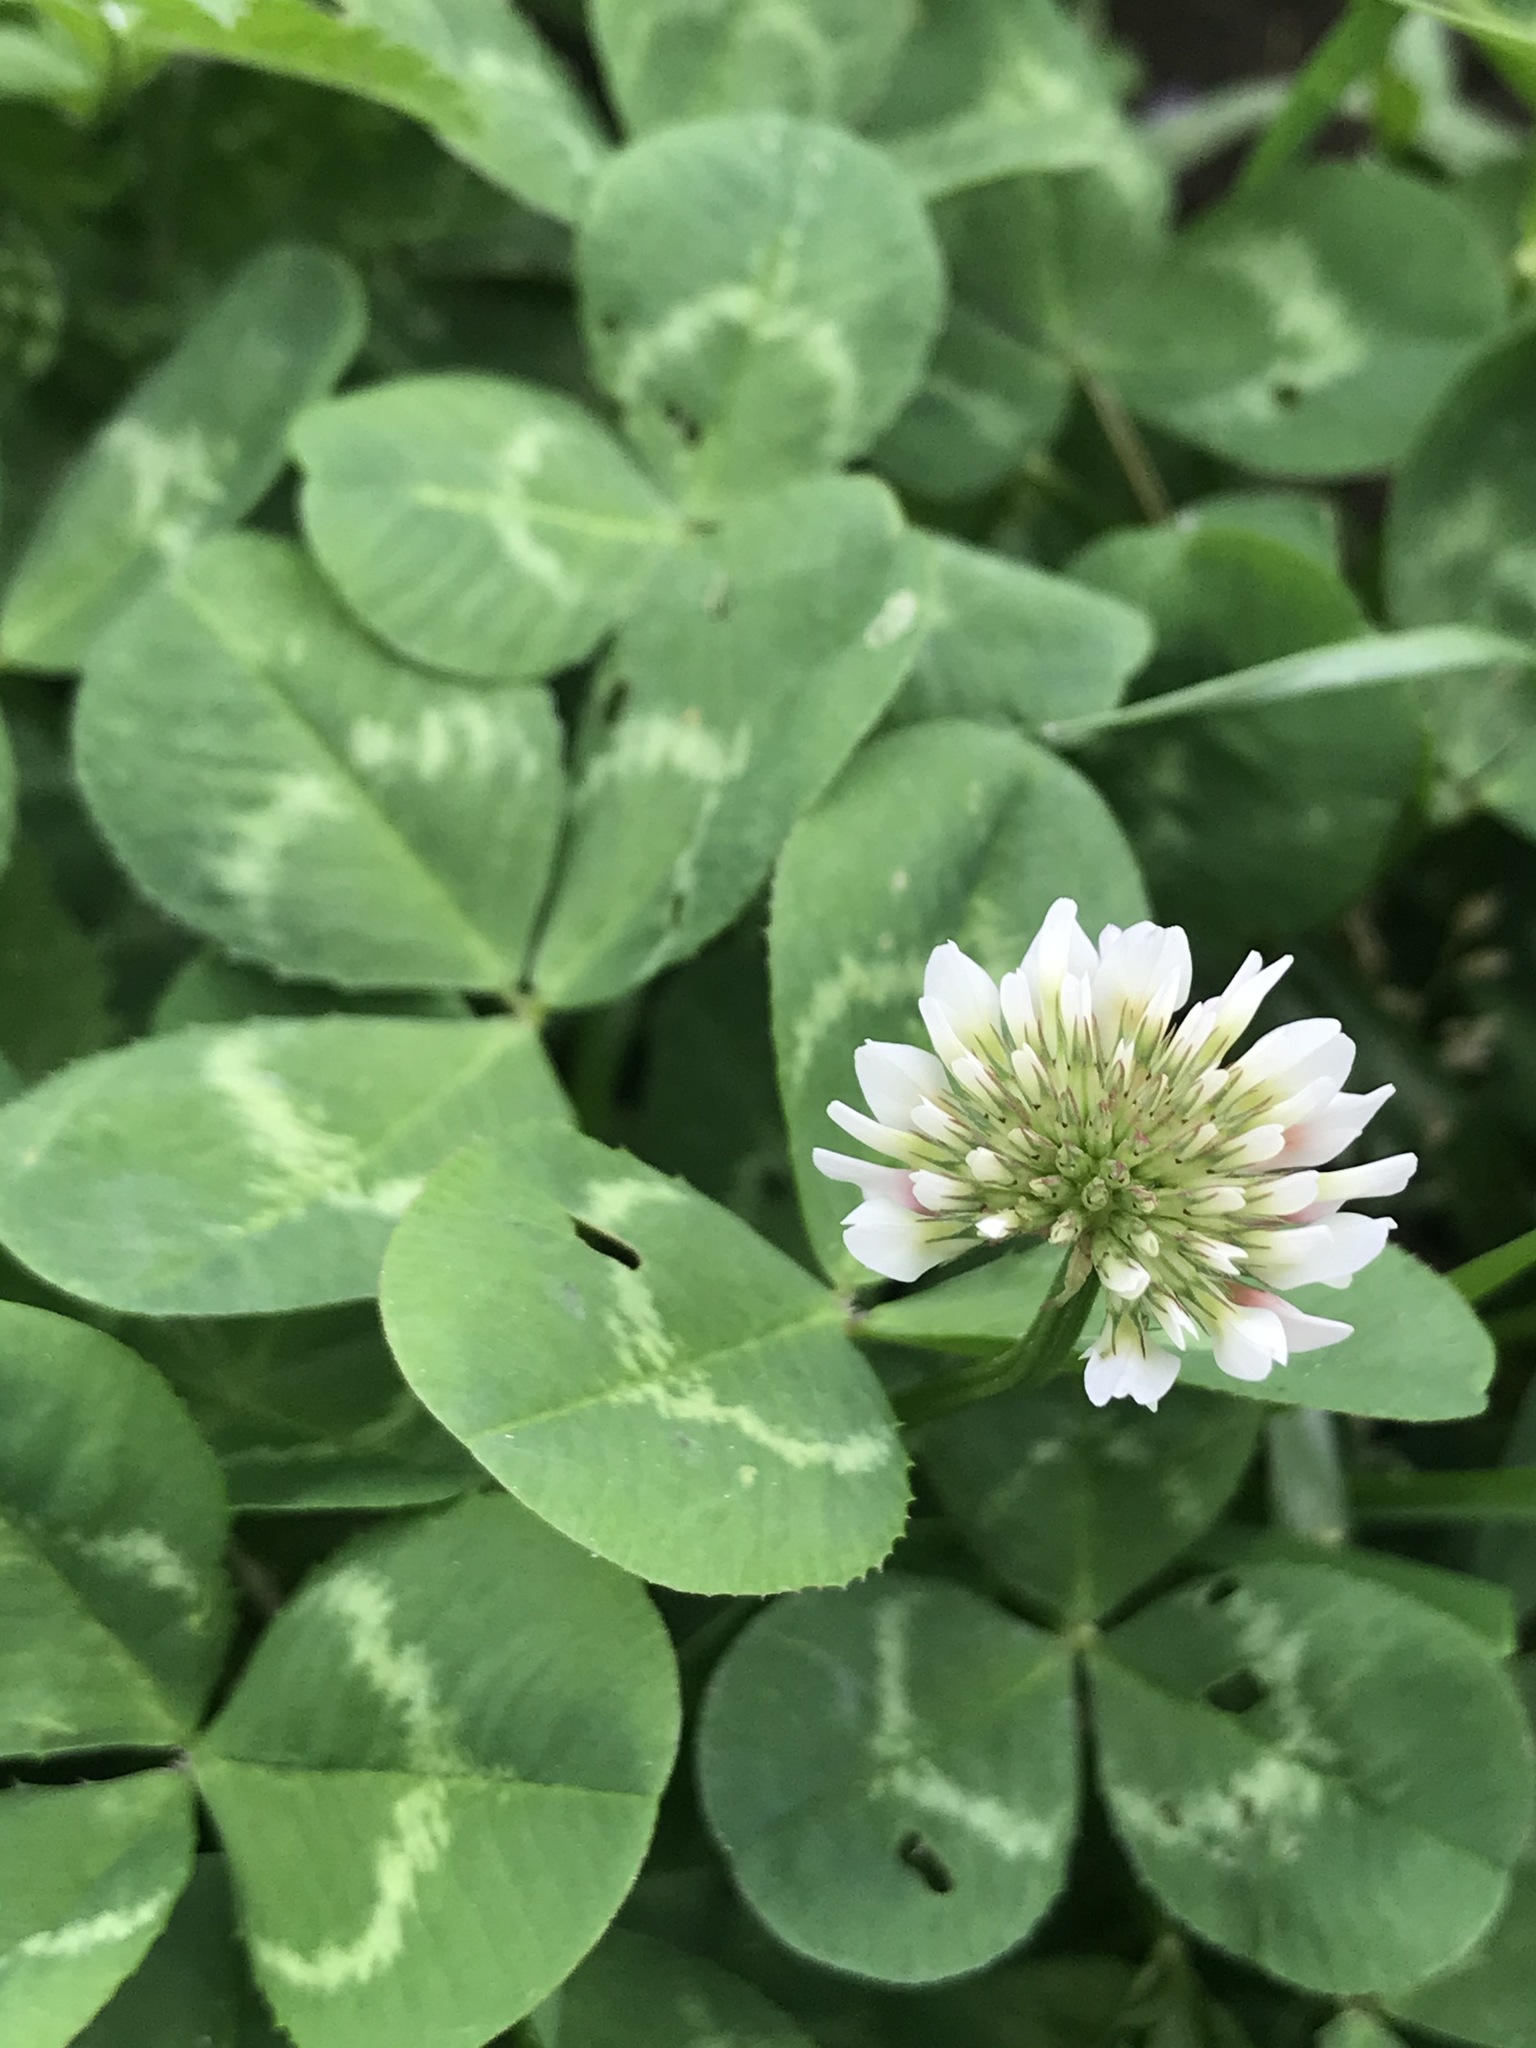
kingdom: Plantae
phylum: Tracheophyta
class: Magnoliopsida
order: Fabales
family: Fabaceae
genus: Trifolium
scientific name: Trifolium repens
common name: White clover
